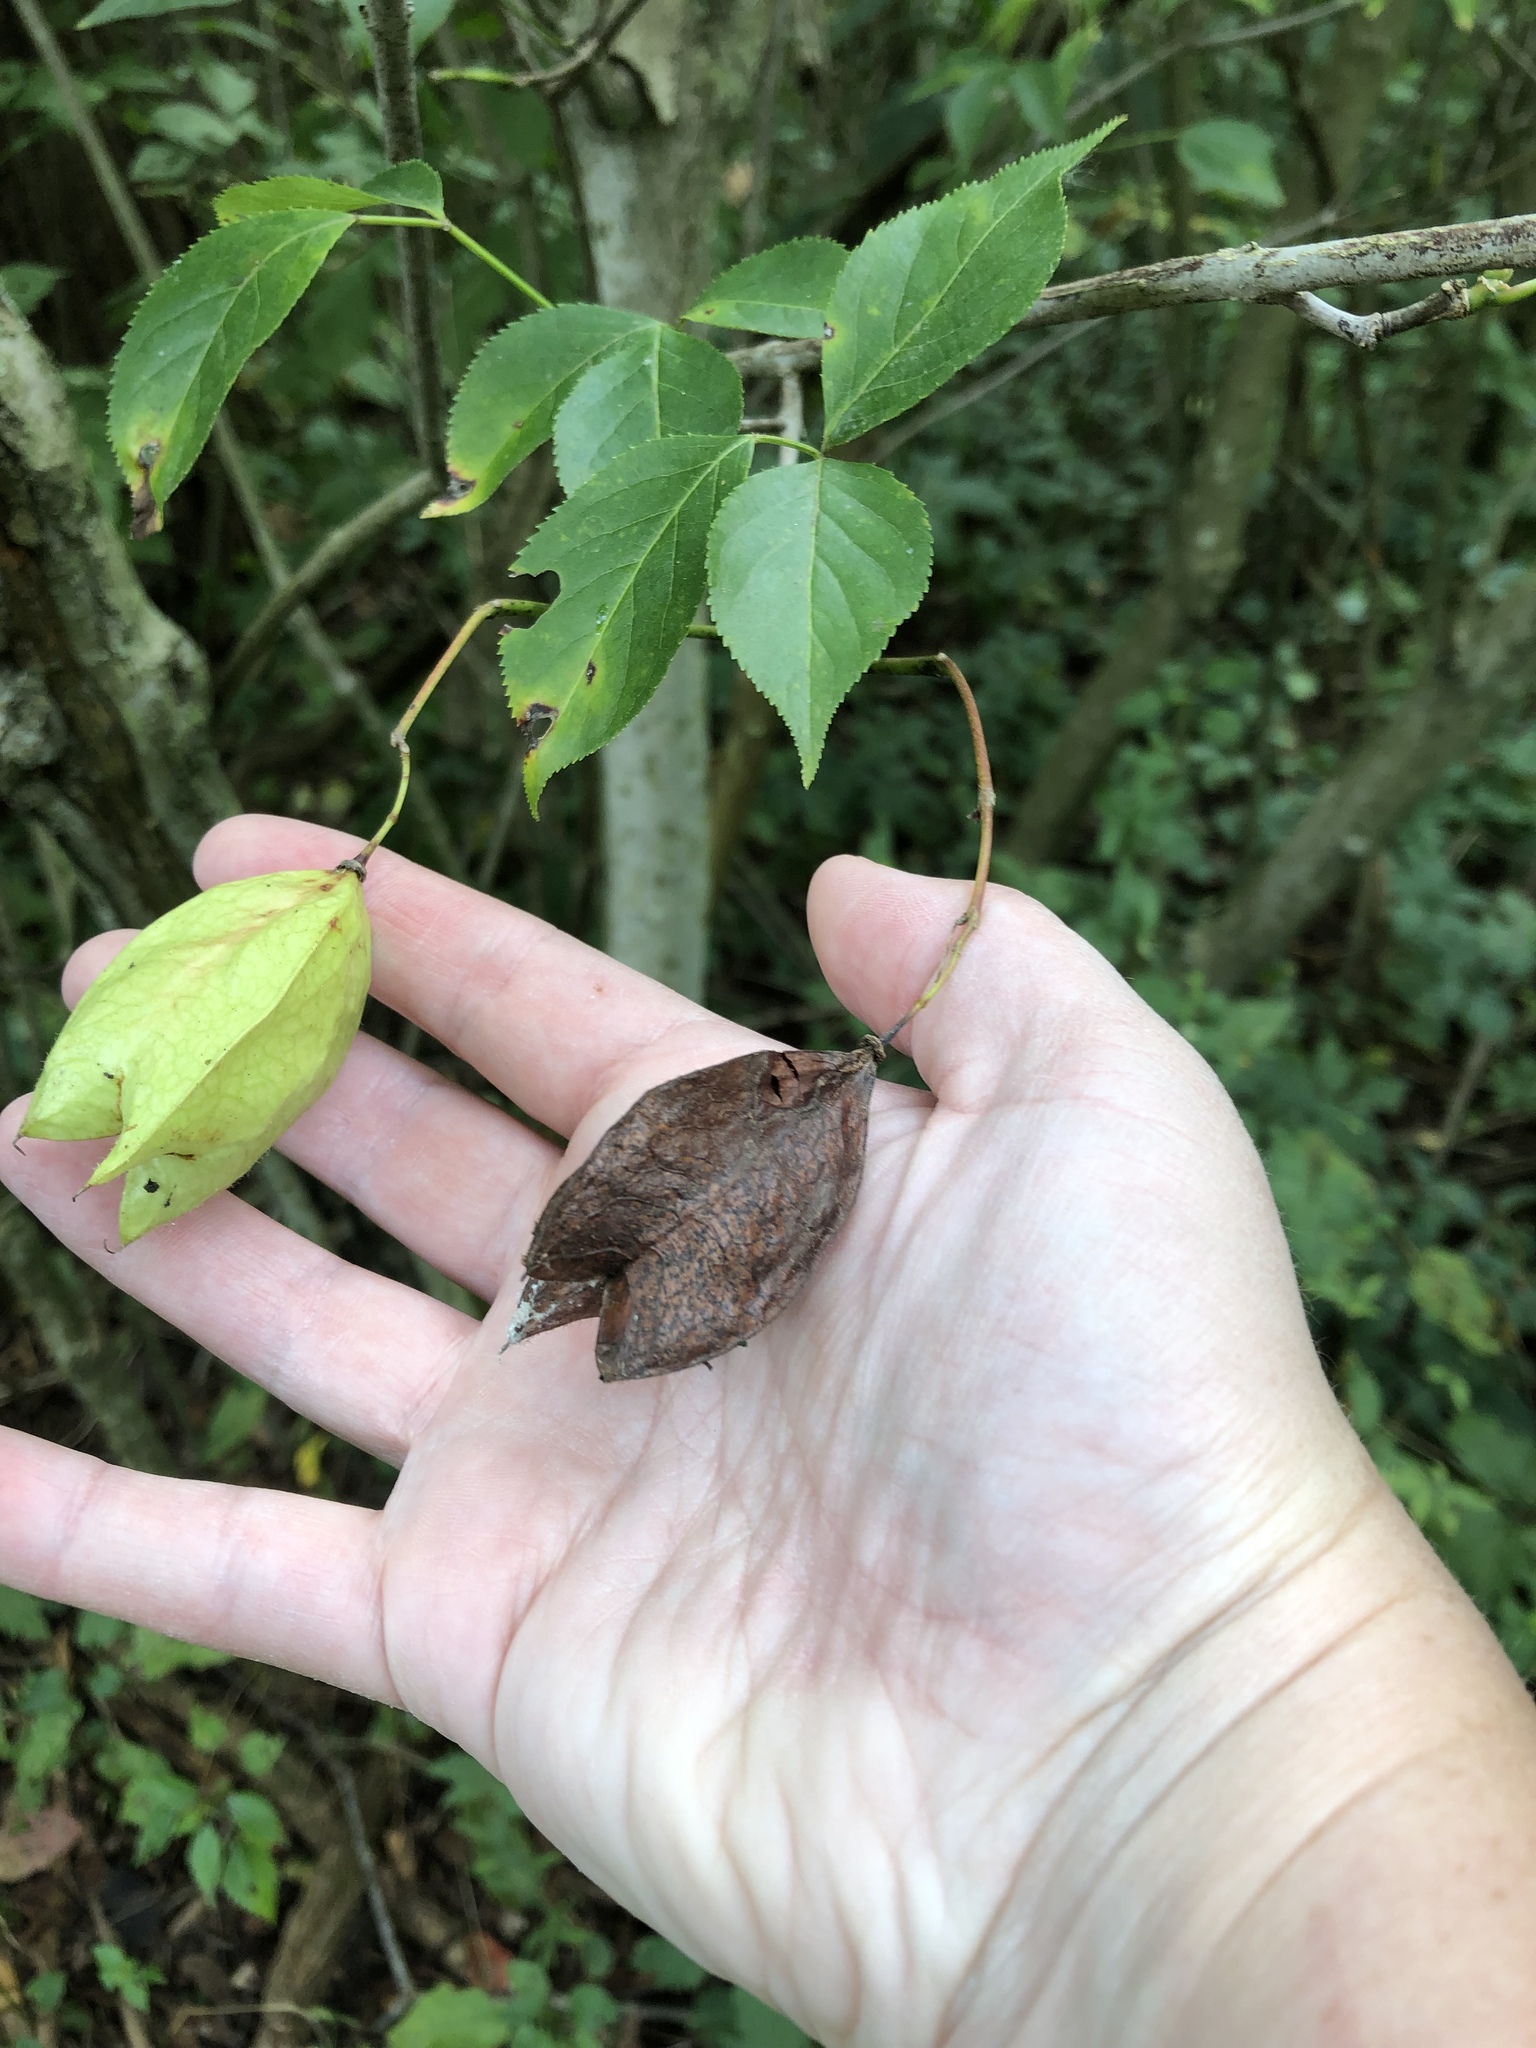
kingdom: Plantae
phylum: Tracheophyta
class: Magnoliopsida
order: Crossosomatales
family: Staphyleaceae
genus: Staphylea
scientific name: Staphylea trifolia
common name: American bladdernut
